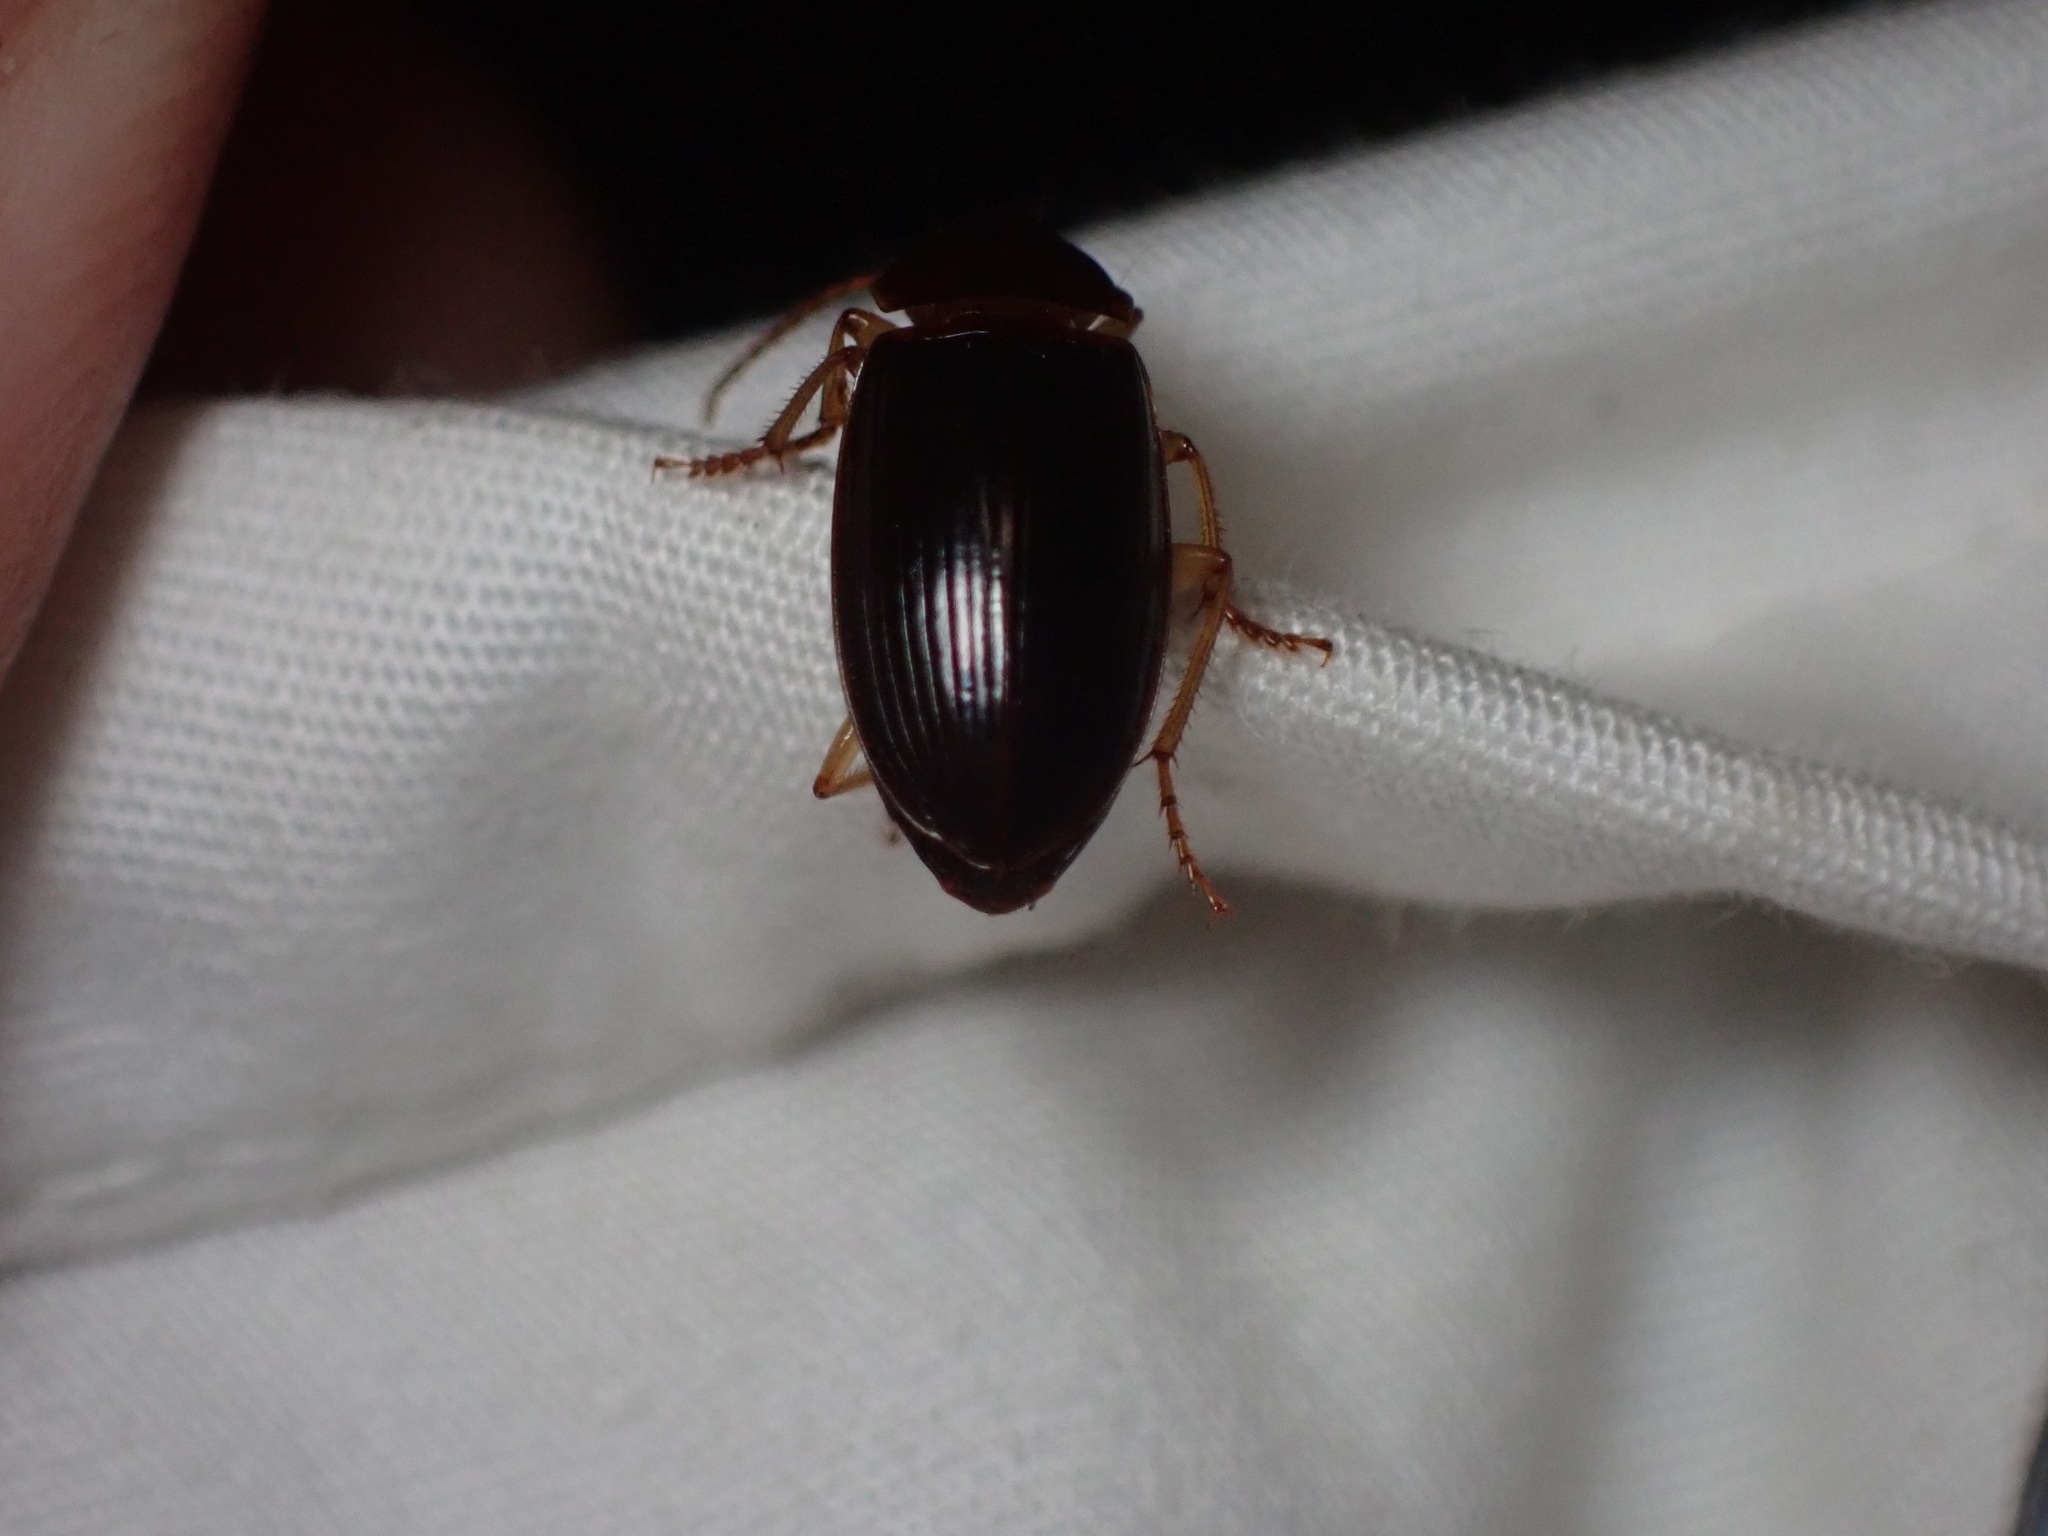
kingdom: Animalia
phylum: Arthropoda
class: Insecta
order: Coleoptera
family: Carabidae
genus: Notiobia
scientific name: Notiobia terminata
